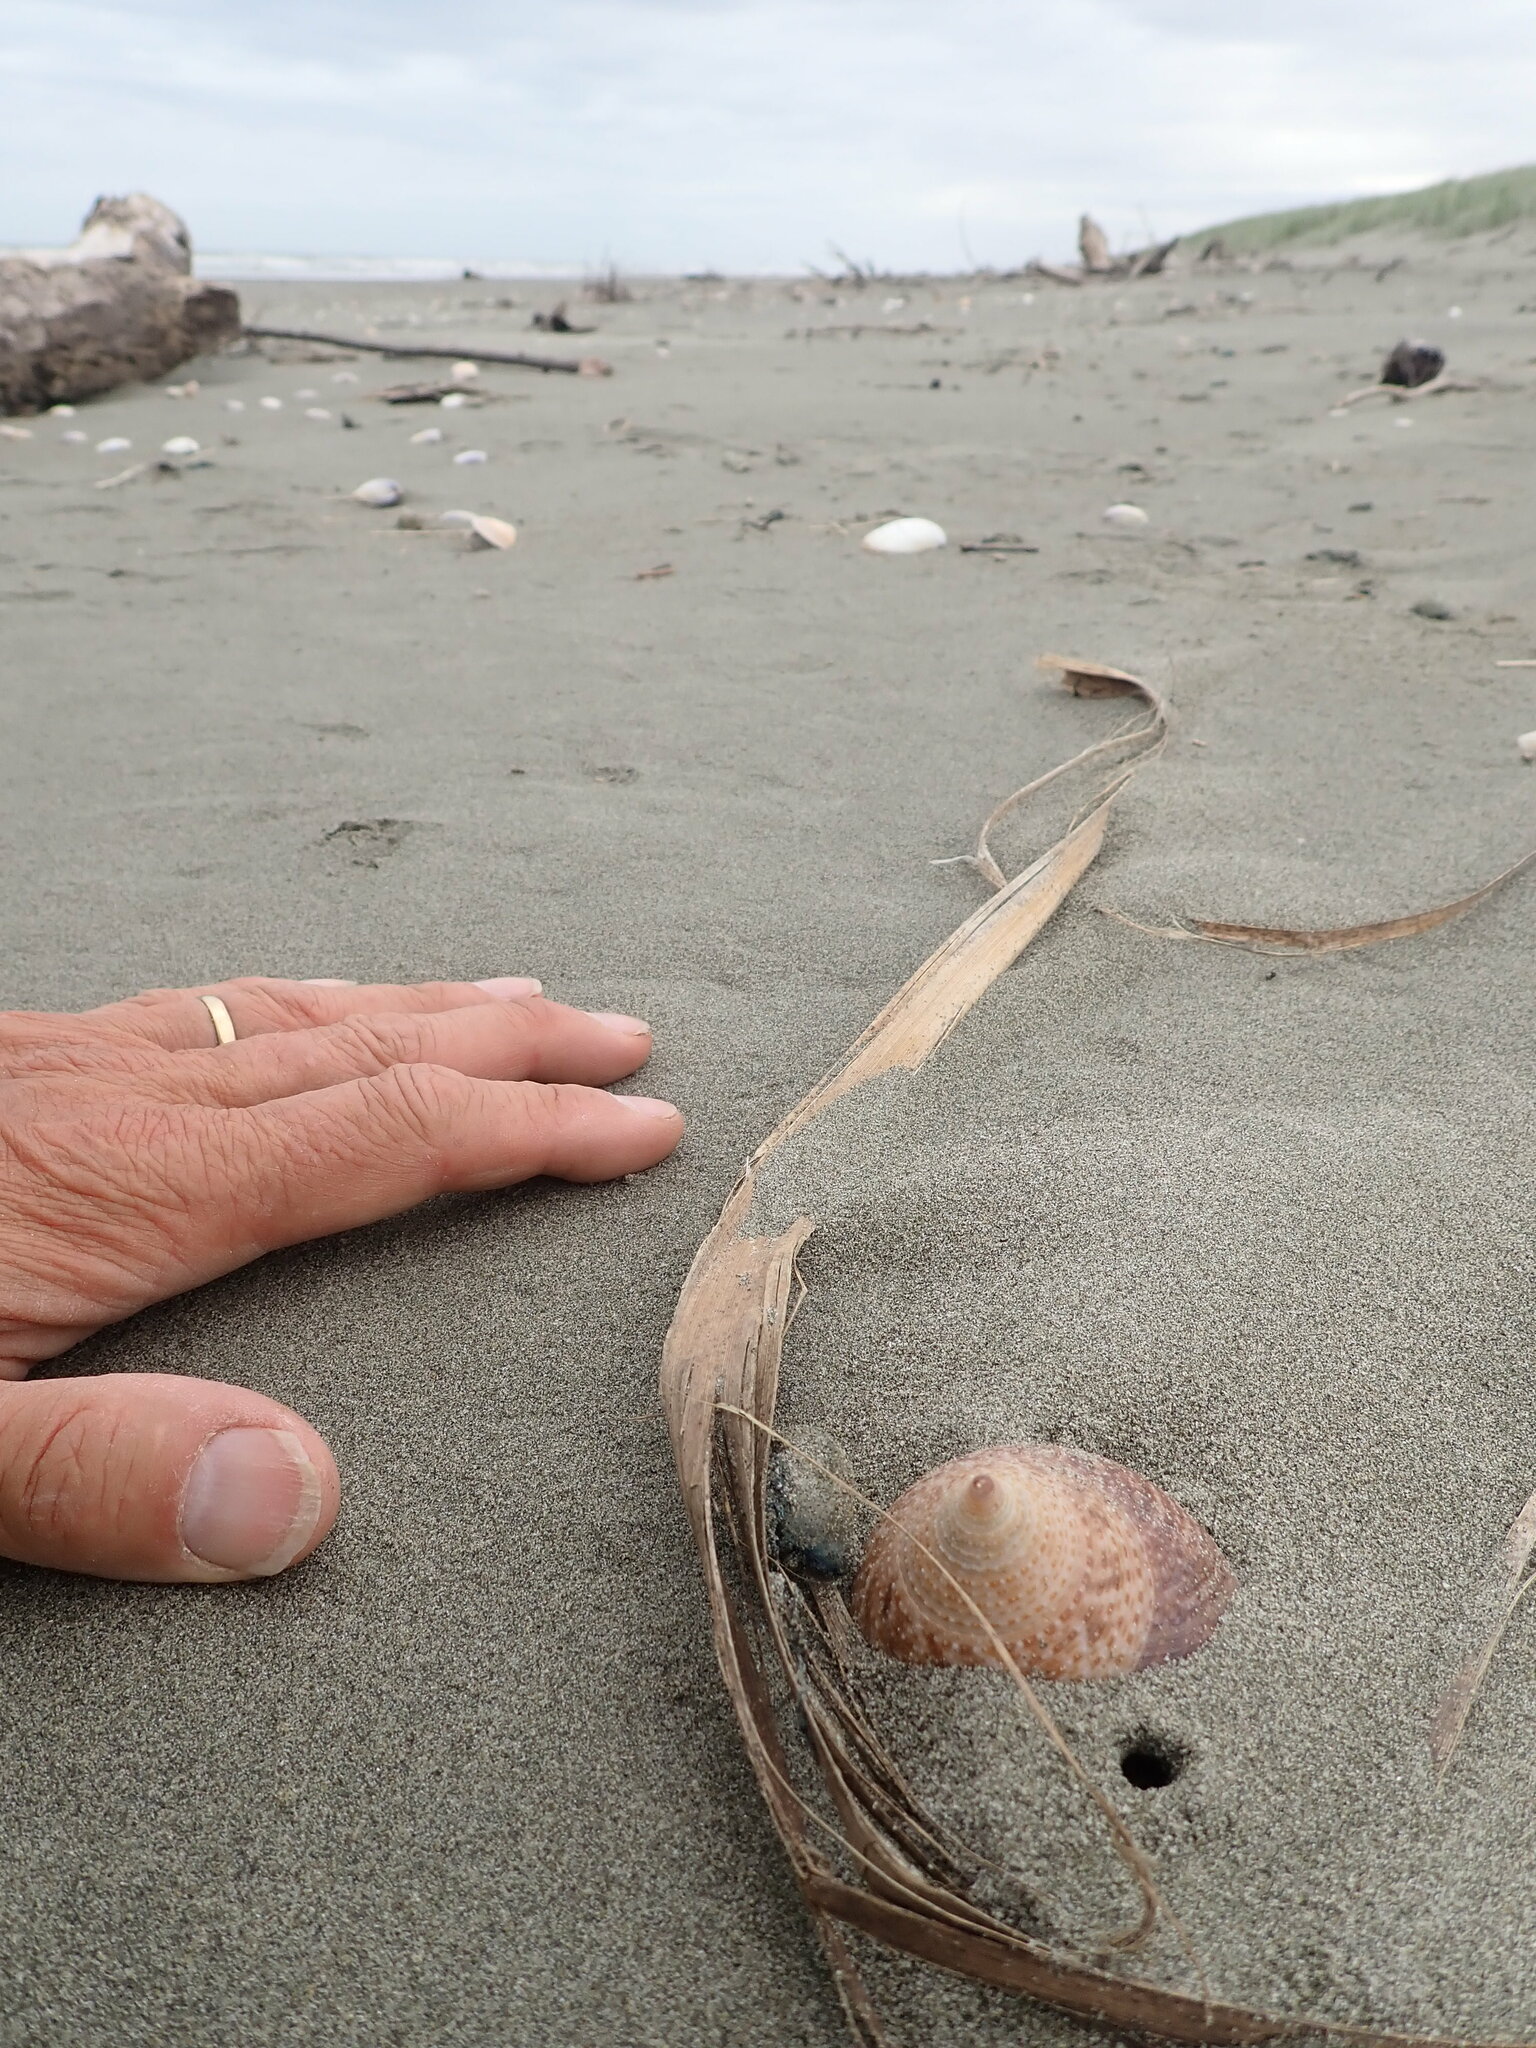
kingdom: Animalia
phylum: Mollusca
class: Gastropoda
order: Trochida
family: Calliostomatidae
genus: Maurea
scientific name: Maurea selecta
